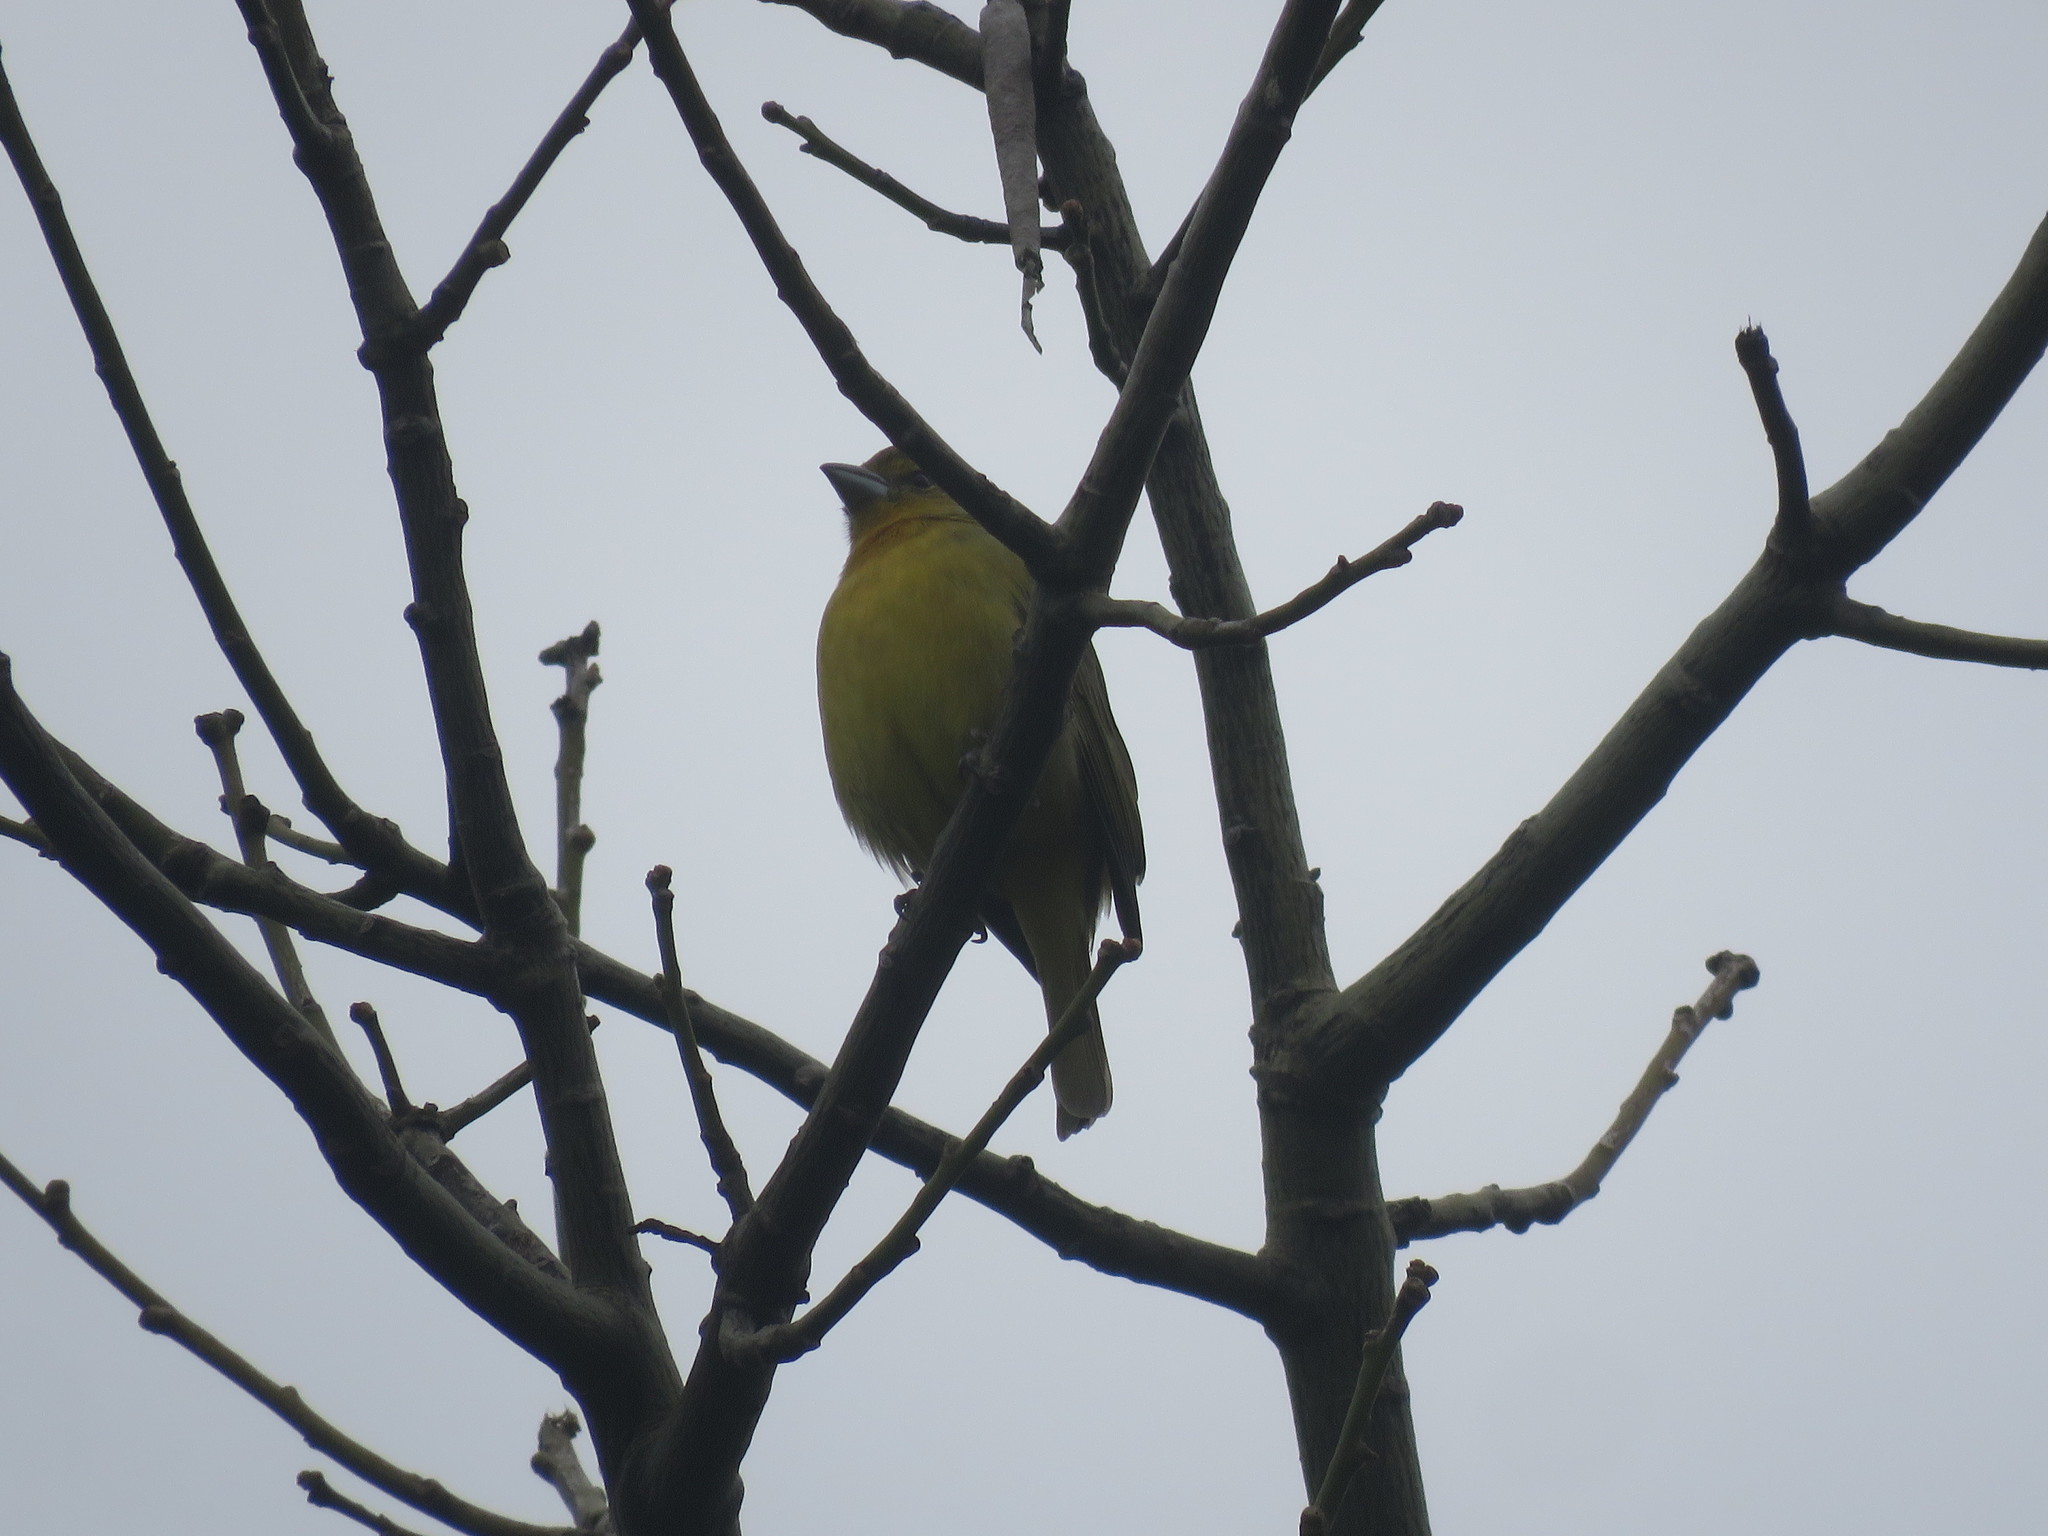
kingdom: Animalia
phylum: Chordata
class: Aves
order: Passeriformes
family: Cardinalidae
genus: Piranga
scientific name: Piranga flava
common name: Red tanager
